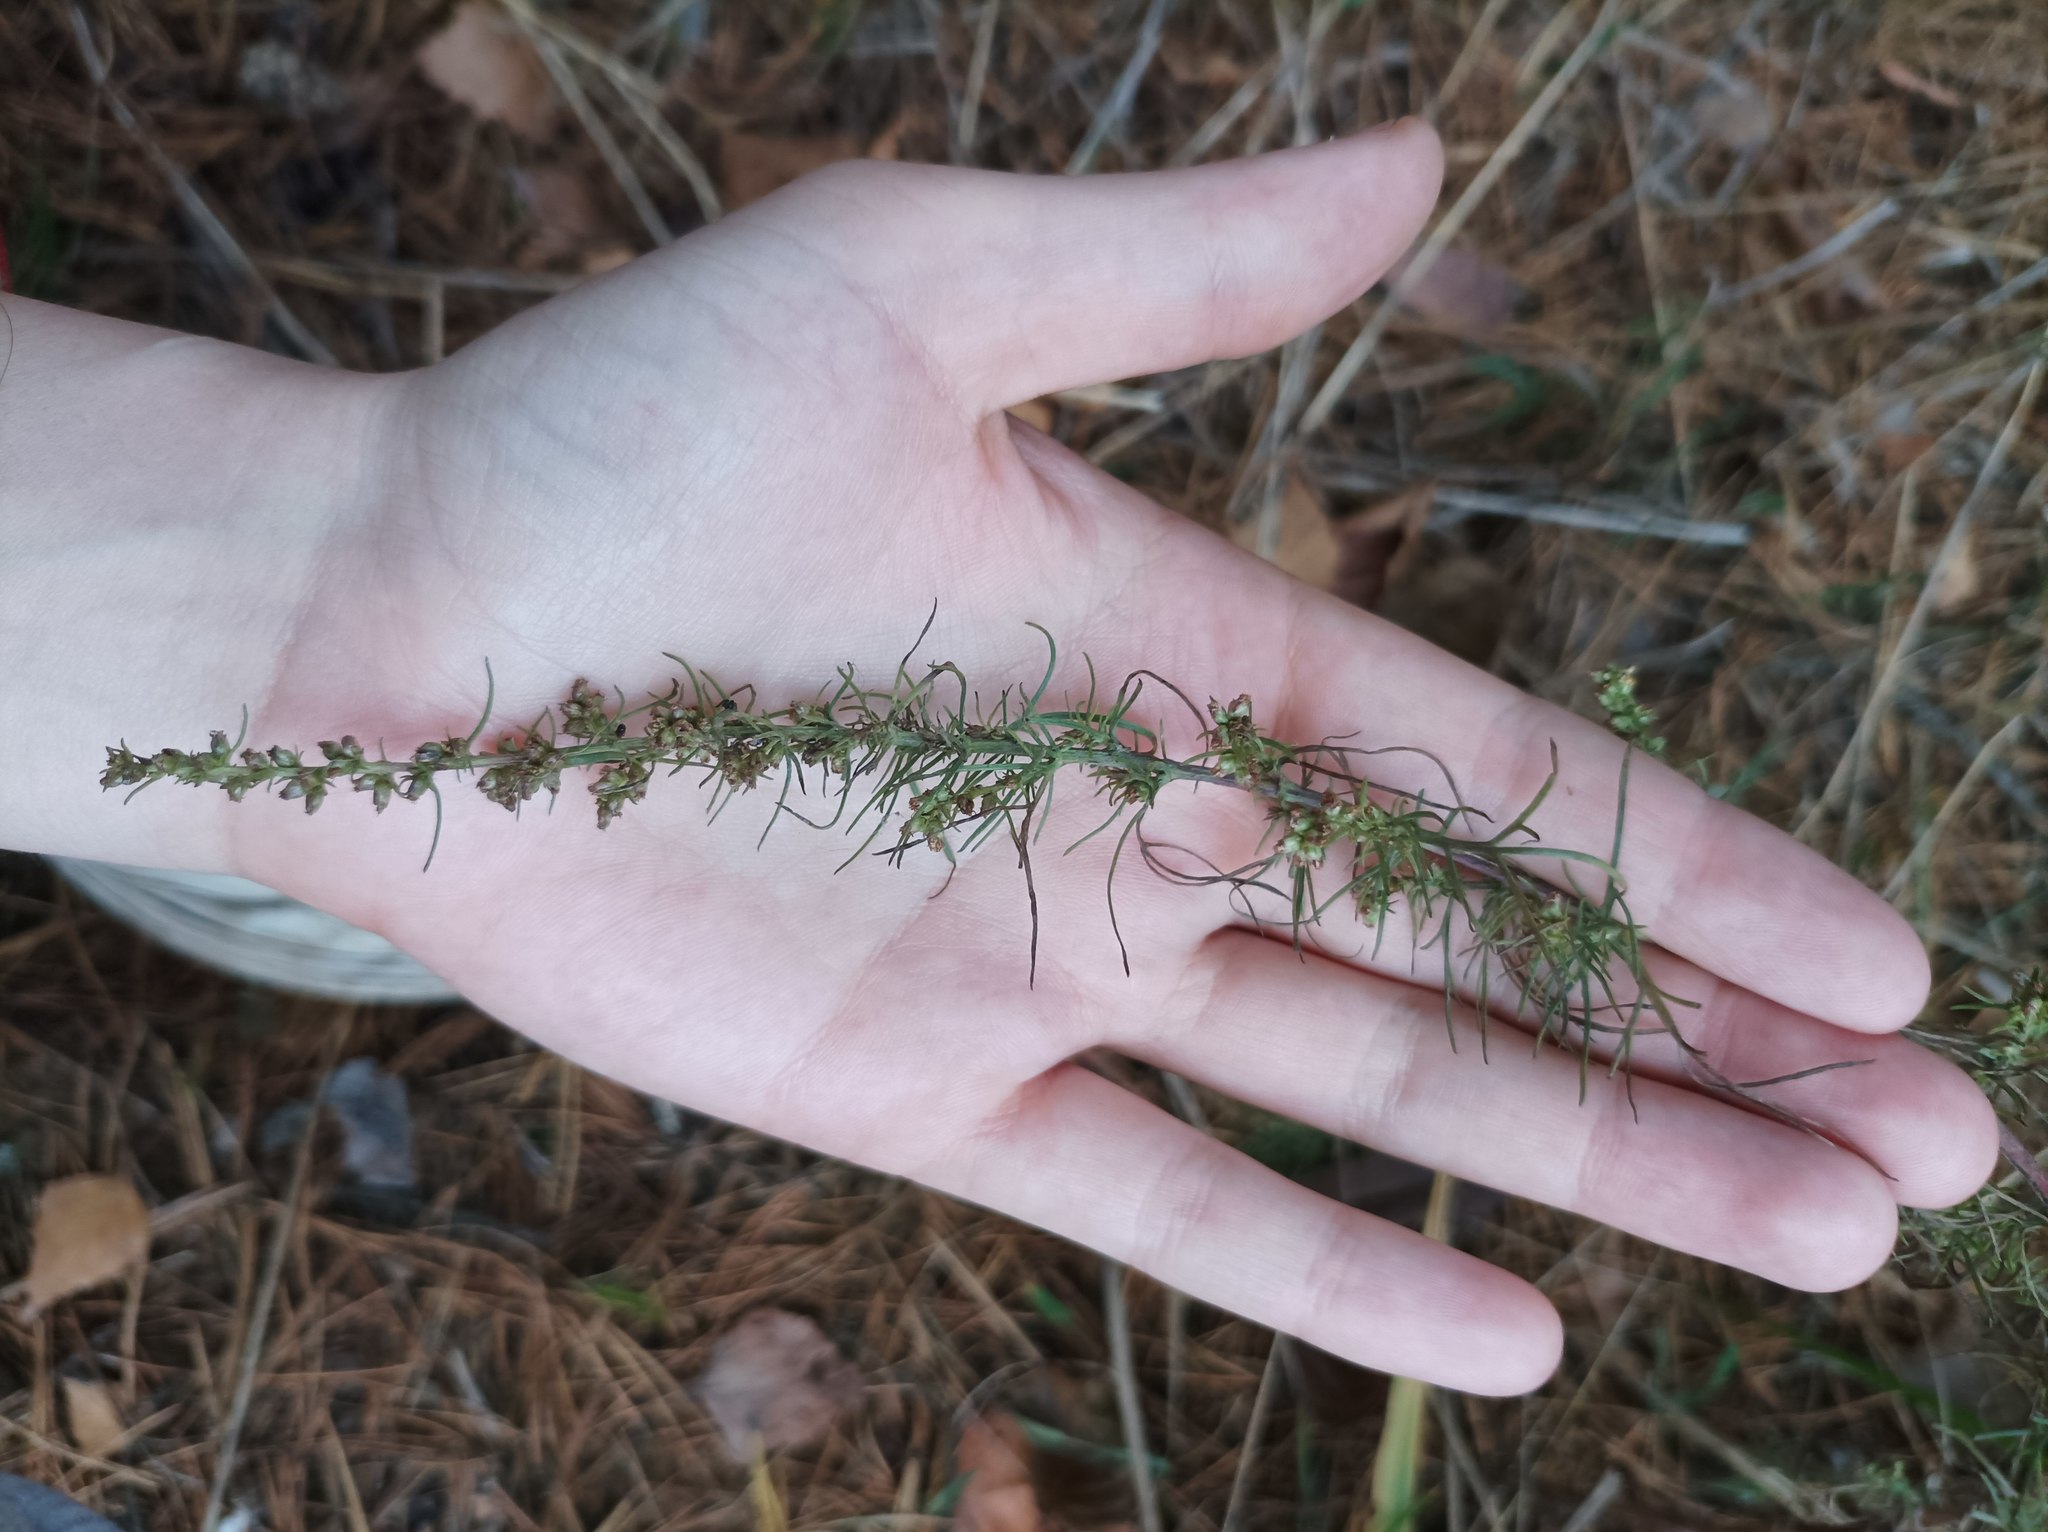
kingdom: Plantae
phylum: Tracheophyta
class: Magnoliopsida
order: Asterales
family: Asteraceae
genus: Artemisia
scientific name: Artemisia austriaca
